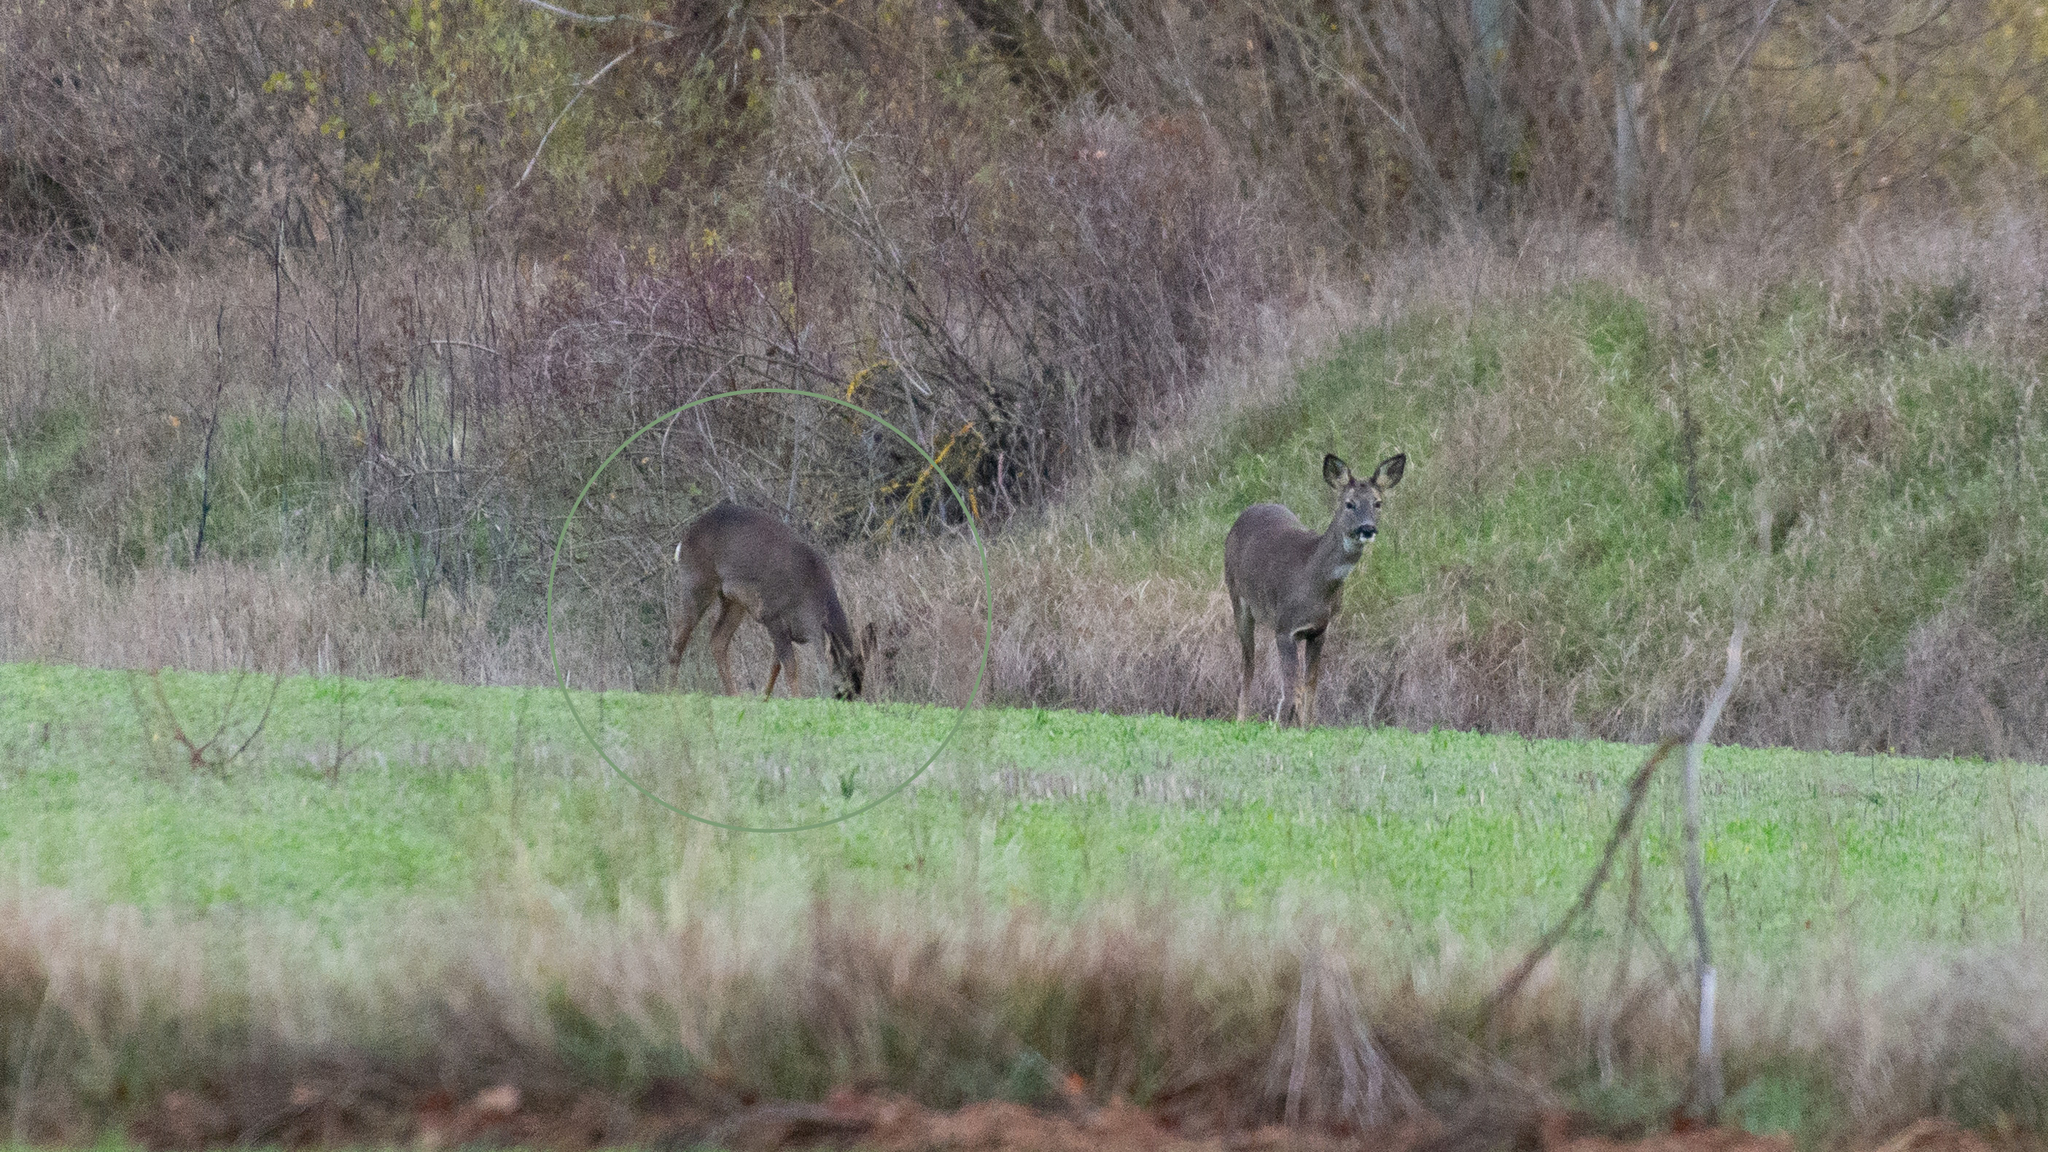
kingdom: Animalia
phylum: Chordata
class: Mammalia
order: Artiodactyla
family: Cervidae
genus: Capreolus
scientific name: Capreolus capreolus
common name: Western roe deer
